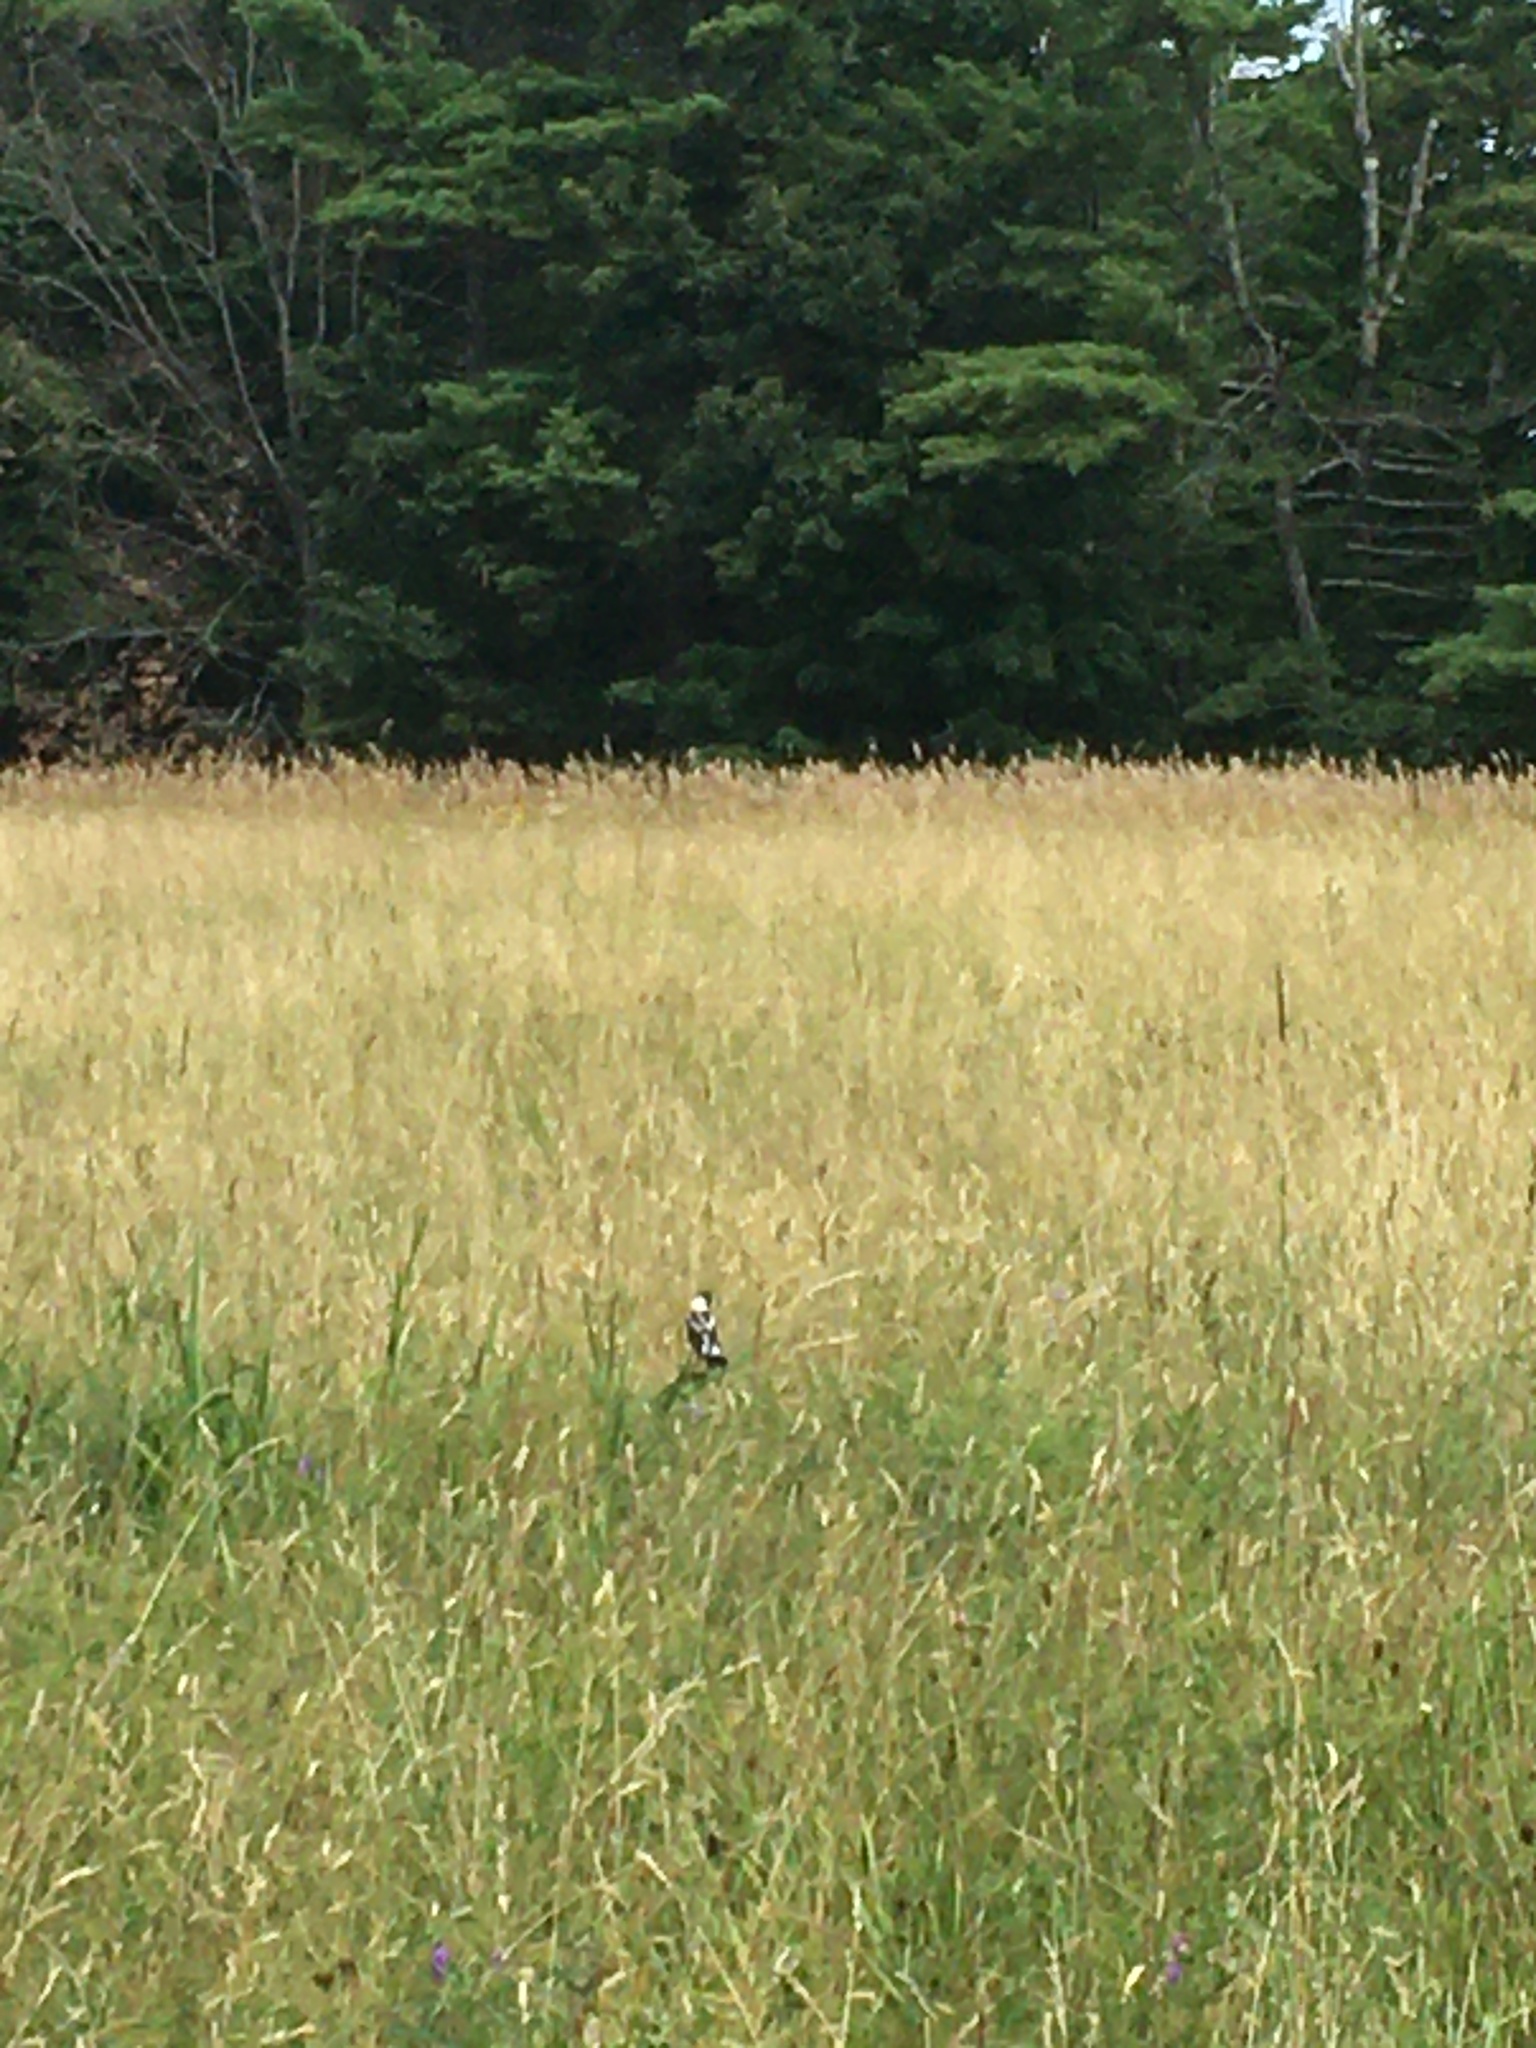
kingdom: Animalia
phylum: Chordata
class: Aves
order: Passeriformes
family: Icteridae
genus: Dolichonyx
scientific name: Dolichonyx oryzivorus
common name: Bobolink
